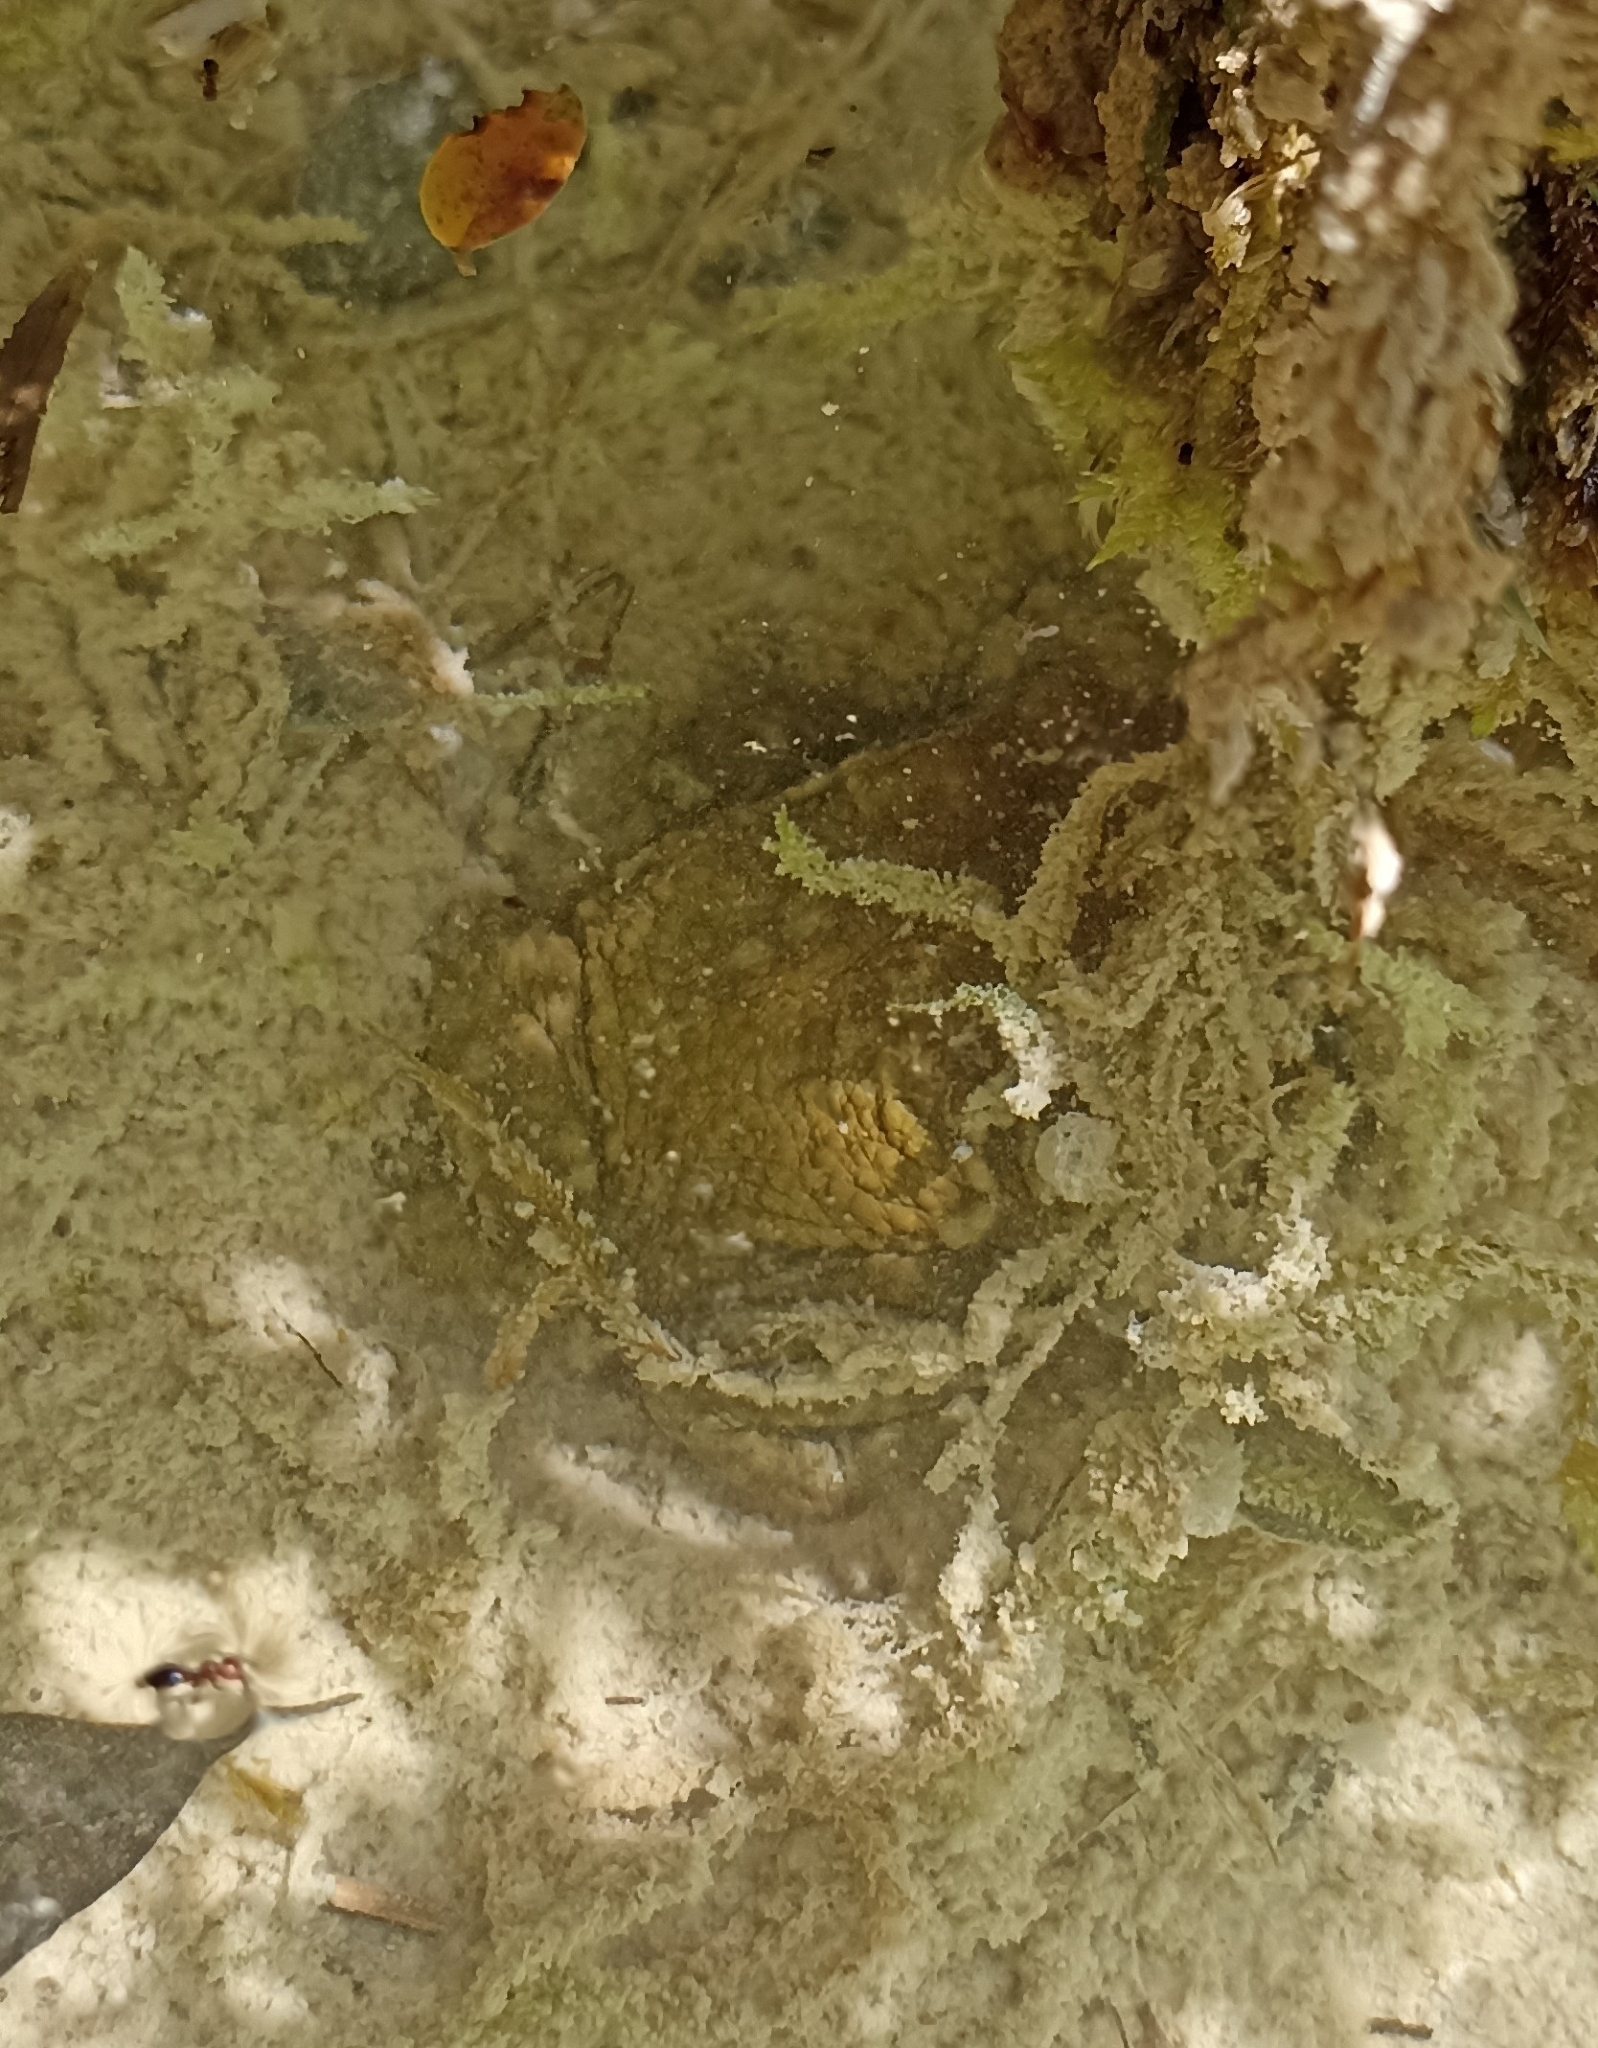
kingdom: Animalia
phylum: Chordata
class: Amphibia
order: Anura
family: Bufonidae
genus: Bufo
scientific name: Bufo spinosus
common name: Western common toad
